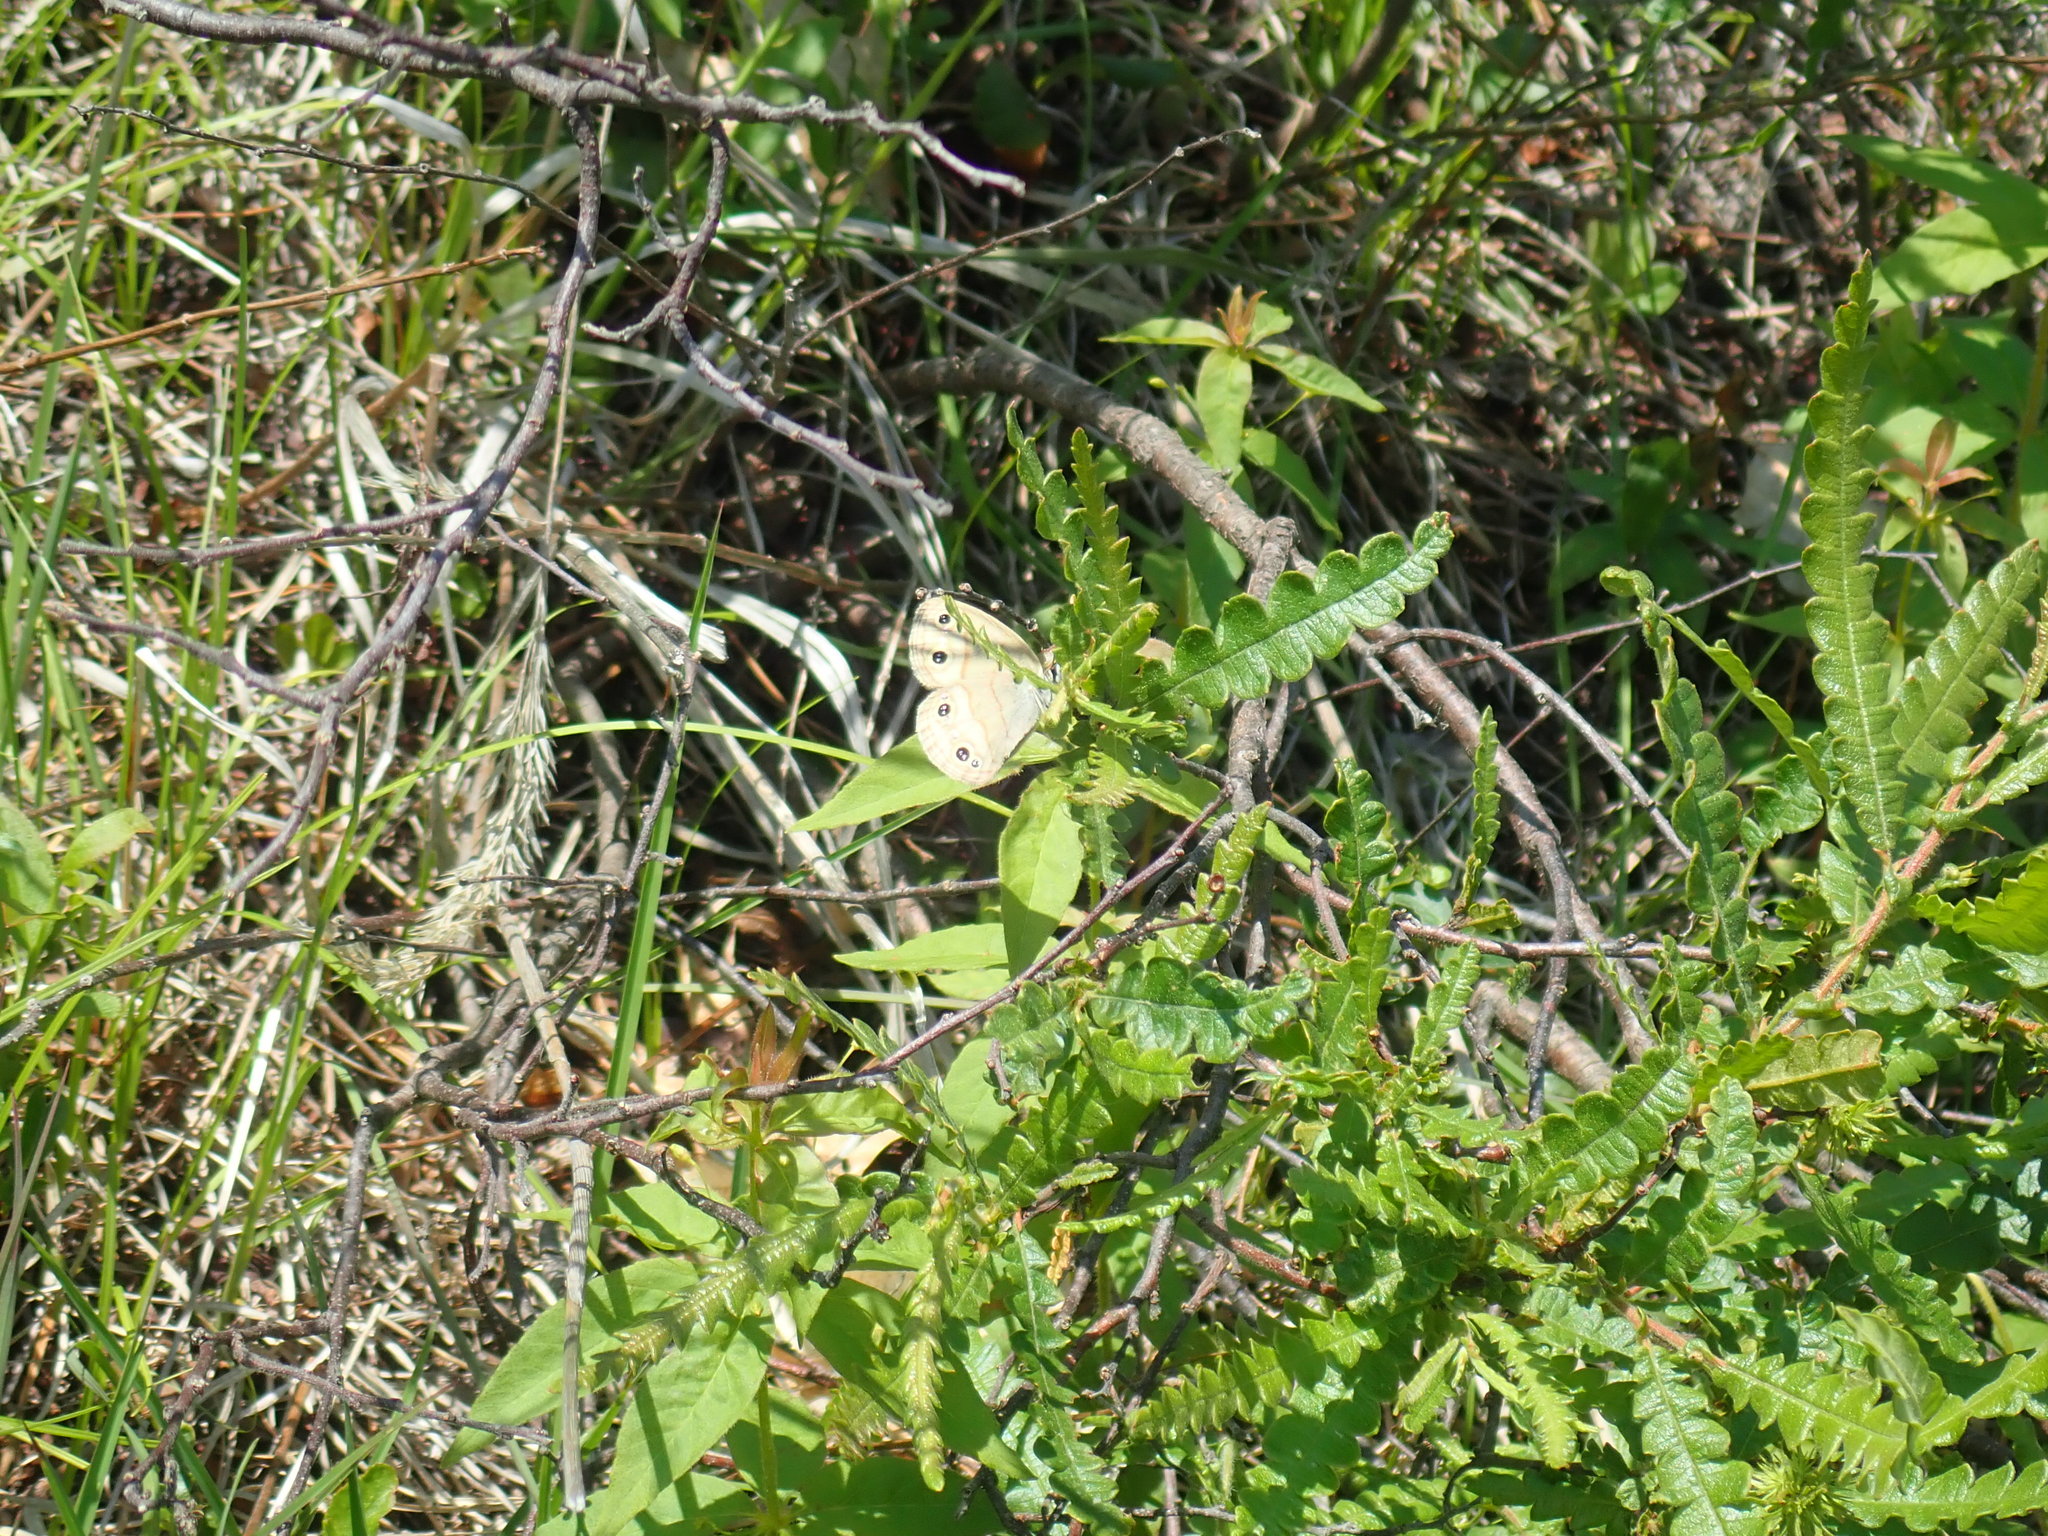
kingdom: Animalia
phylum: Arthropoda
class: Insecta
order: Lepidoptera
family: Nymphalidae
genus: Euptychia
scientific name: Euptychia cymela
